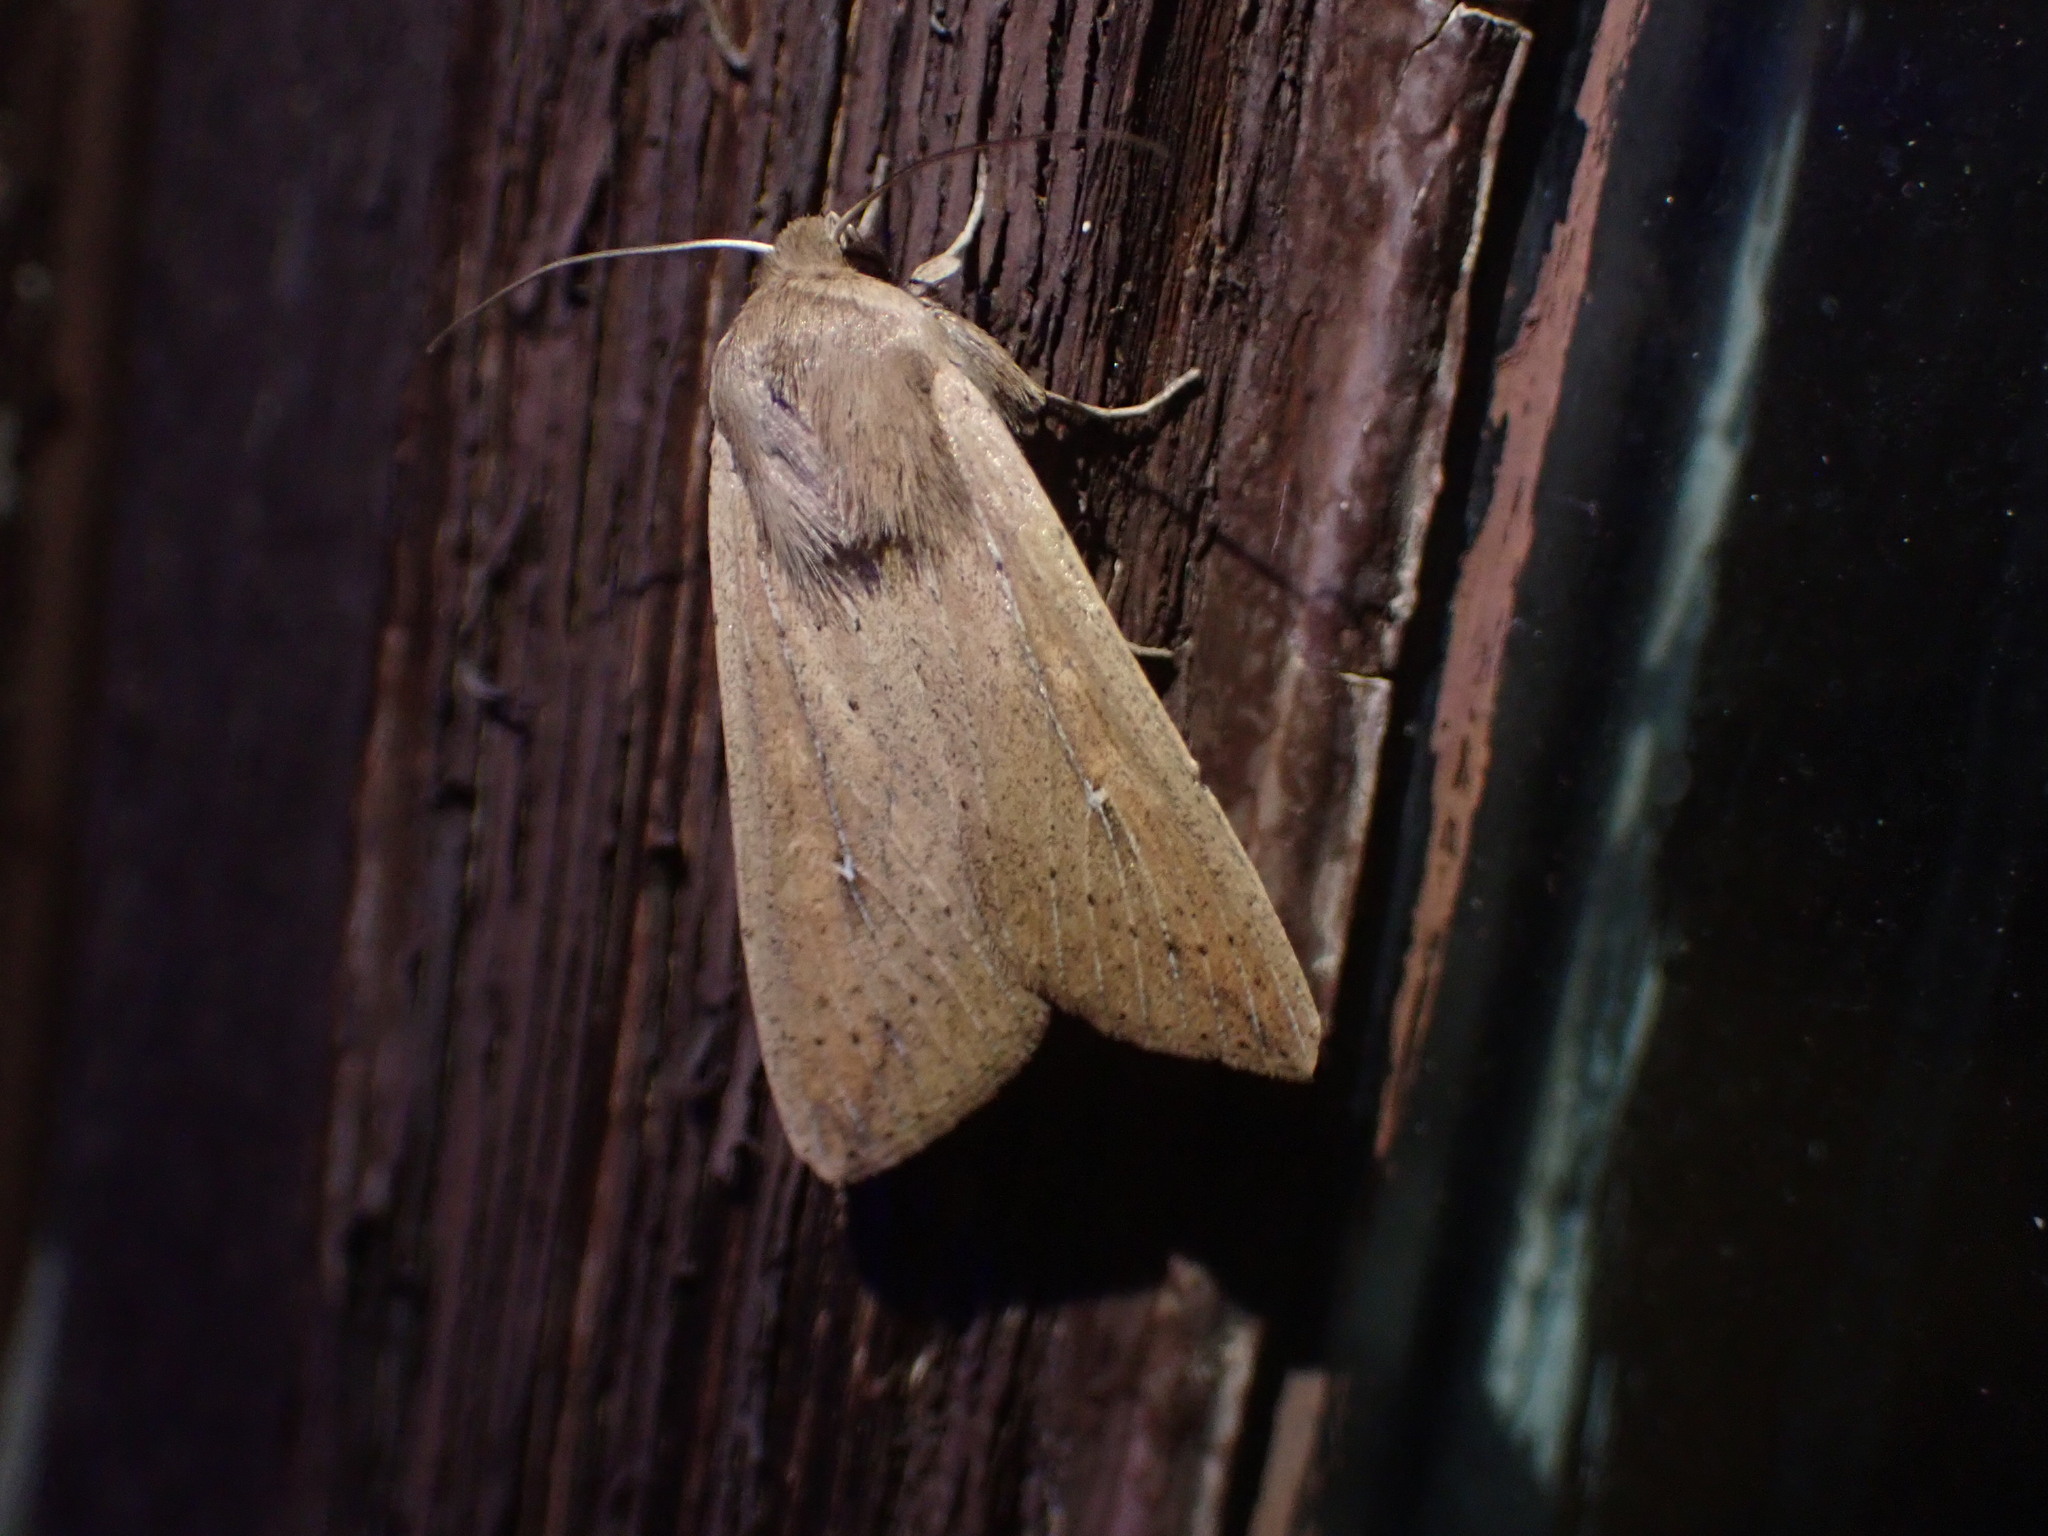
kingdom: Animalia
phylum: Arthropoda
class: Insecta
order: Lepidoptera
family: Noctuidae
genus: Mythimna
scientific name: Mythimna unipuncta
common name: White-speck
